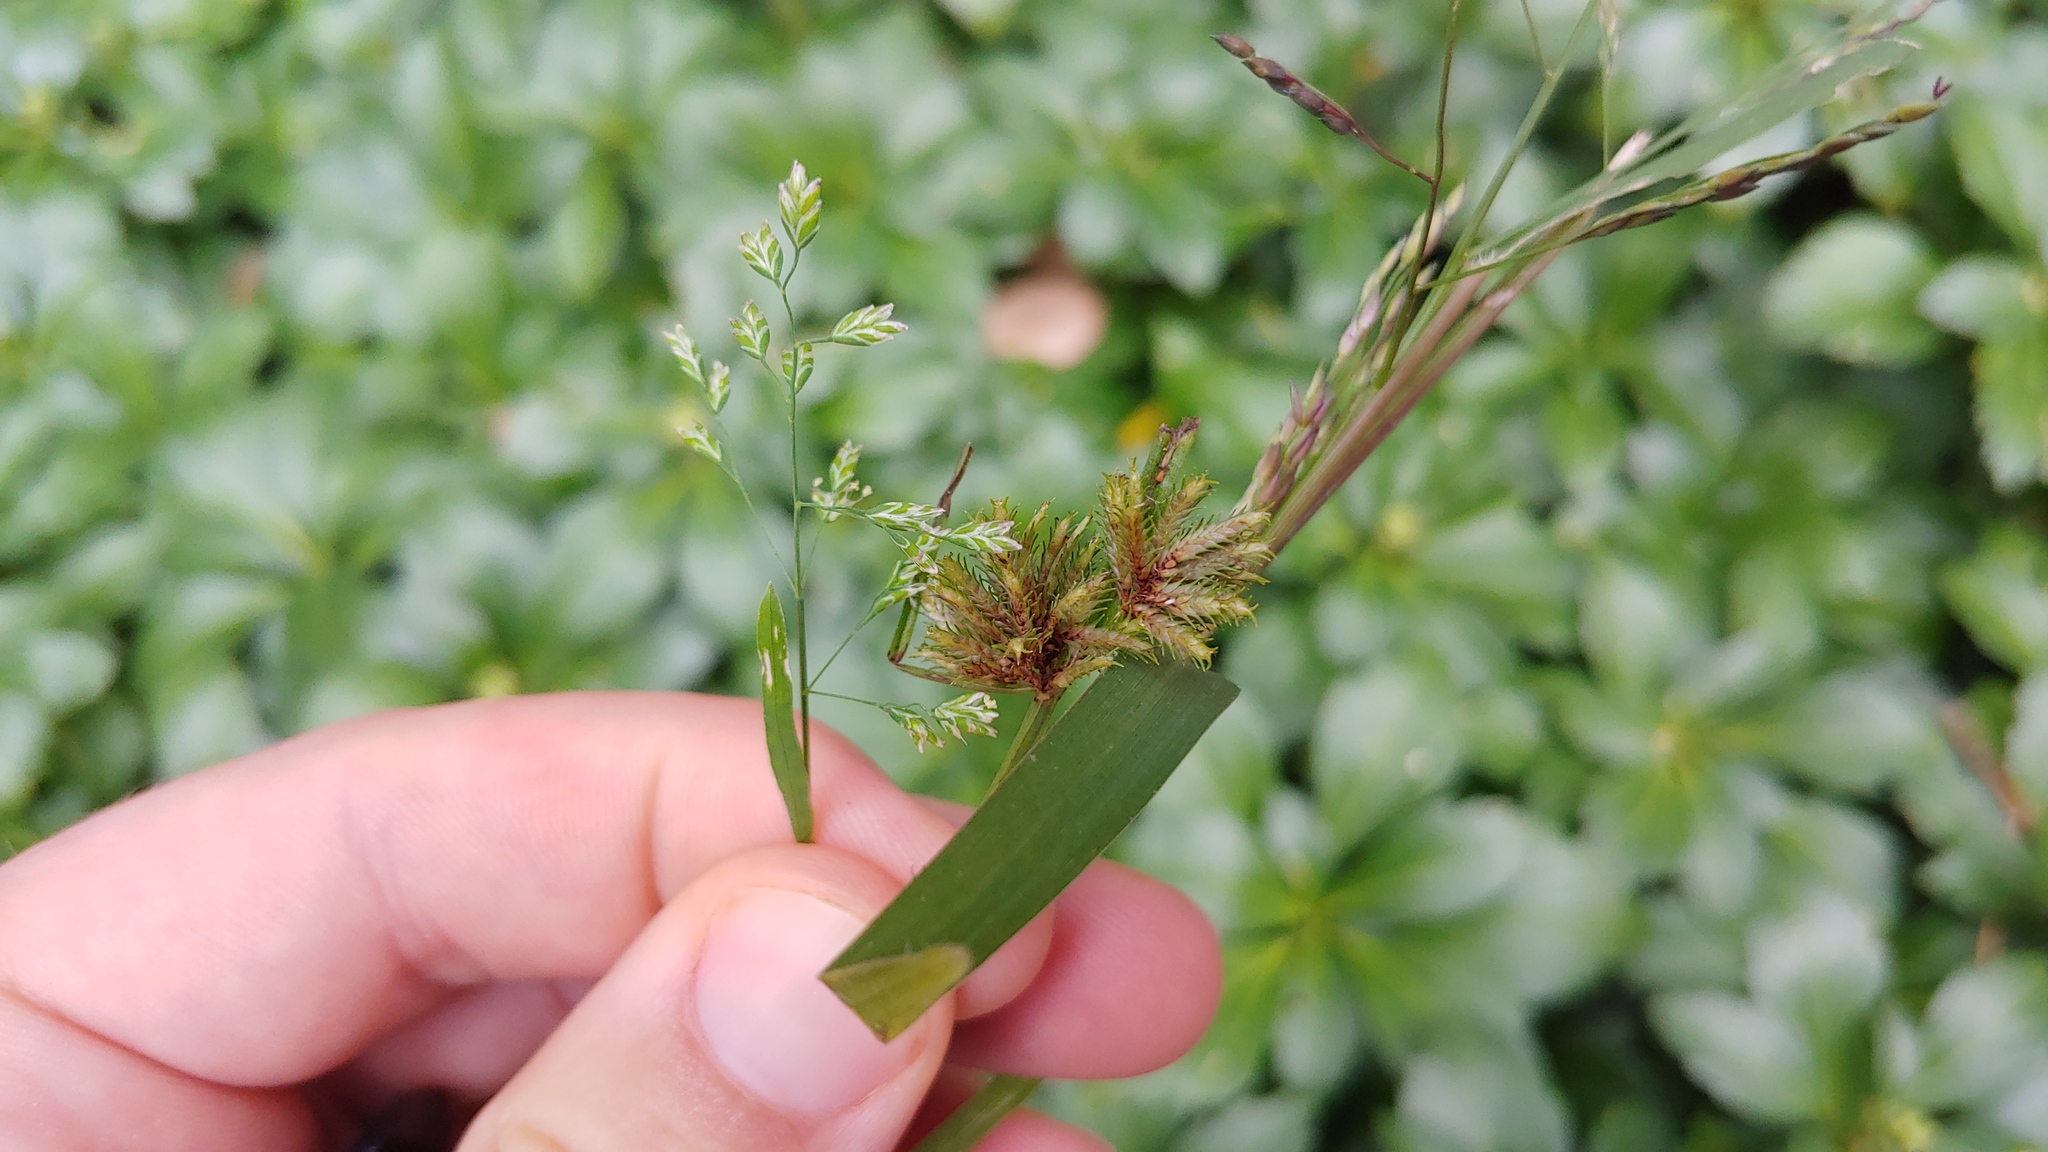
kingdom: Plantae
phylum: Tracheophyta
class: Liliopsida
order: Poales
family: Poaceae
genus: Poa
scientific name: Poa annua
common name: Annual bluegrass
